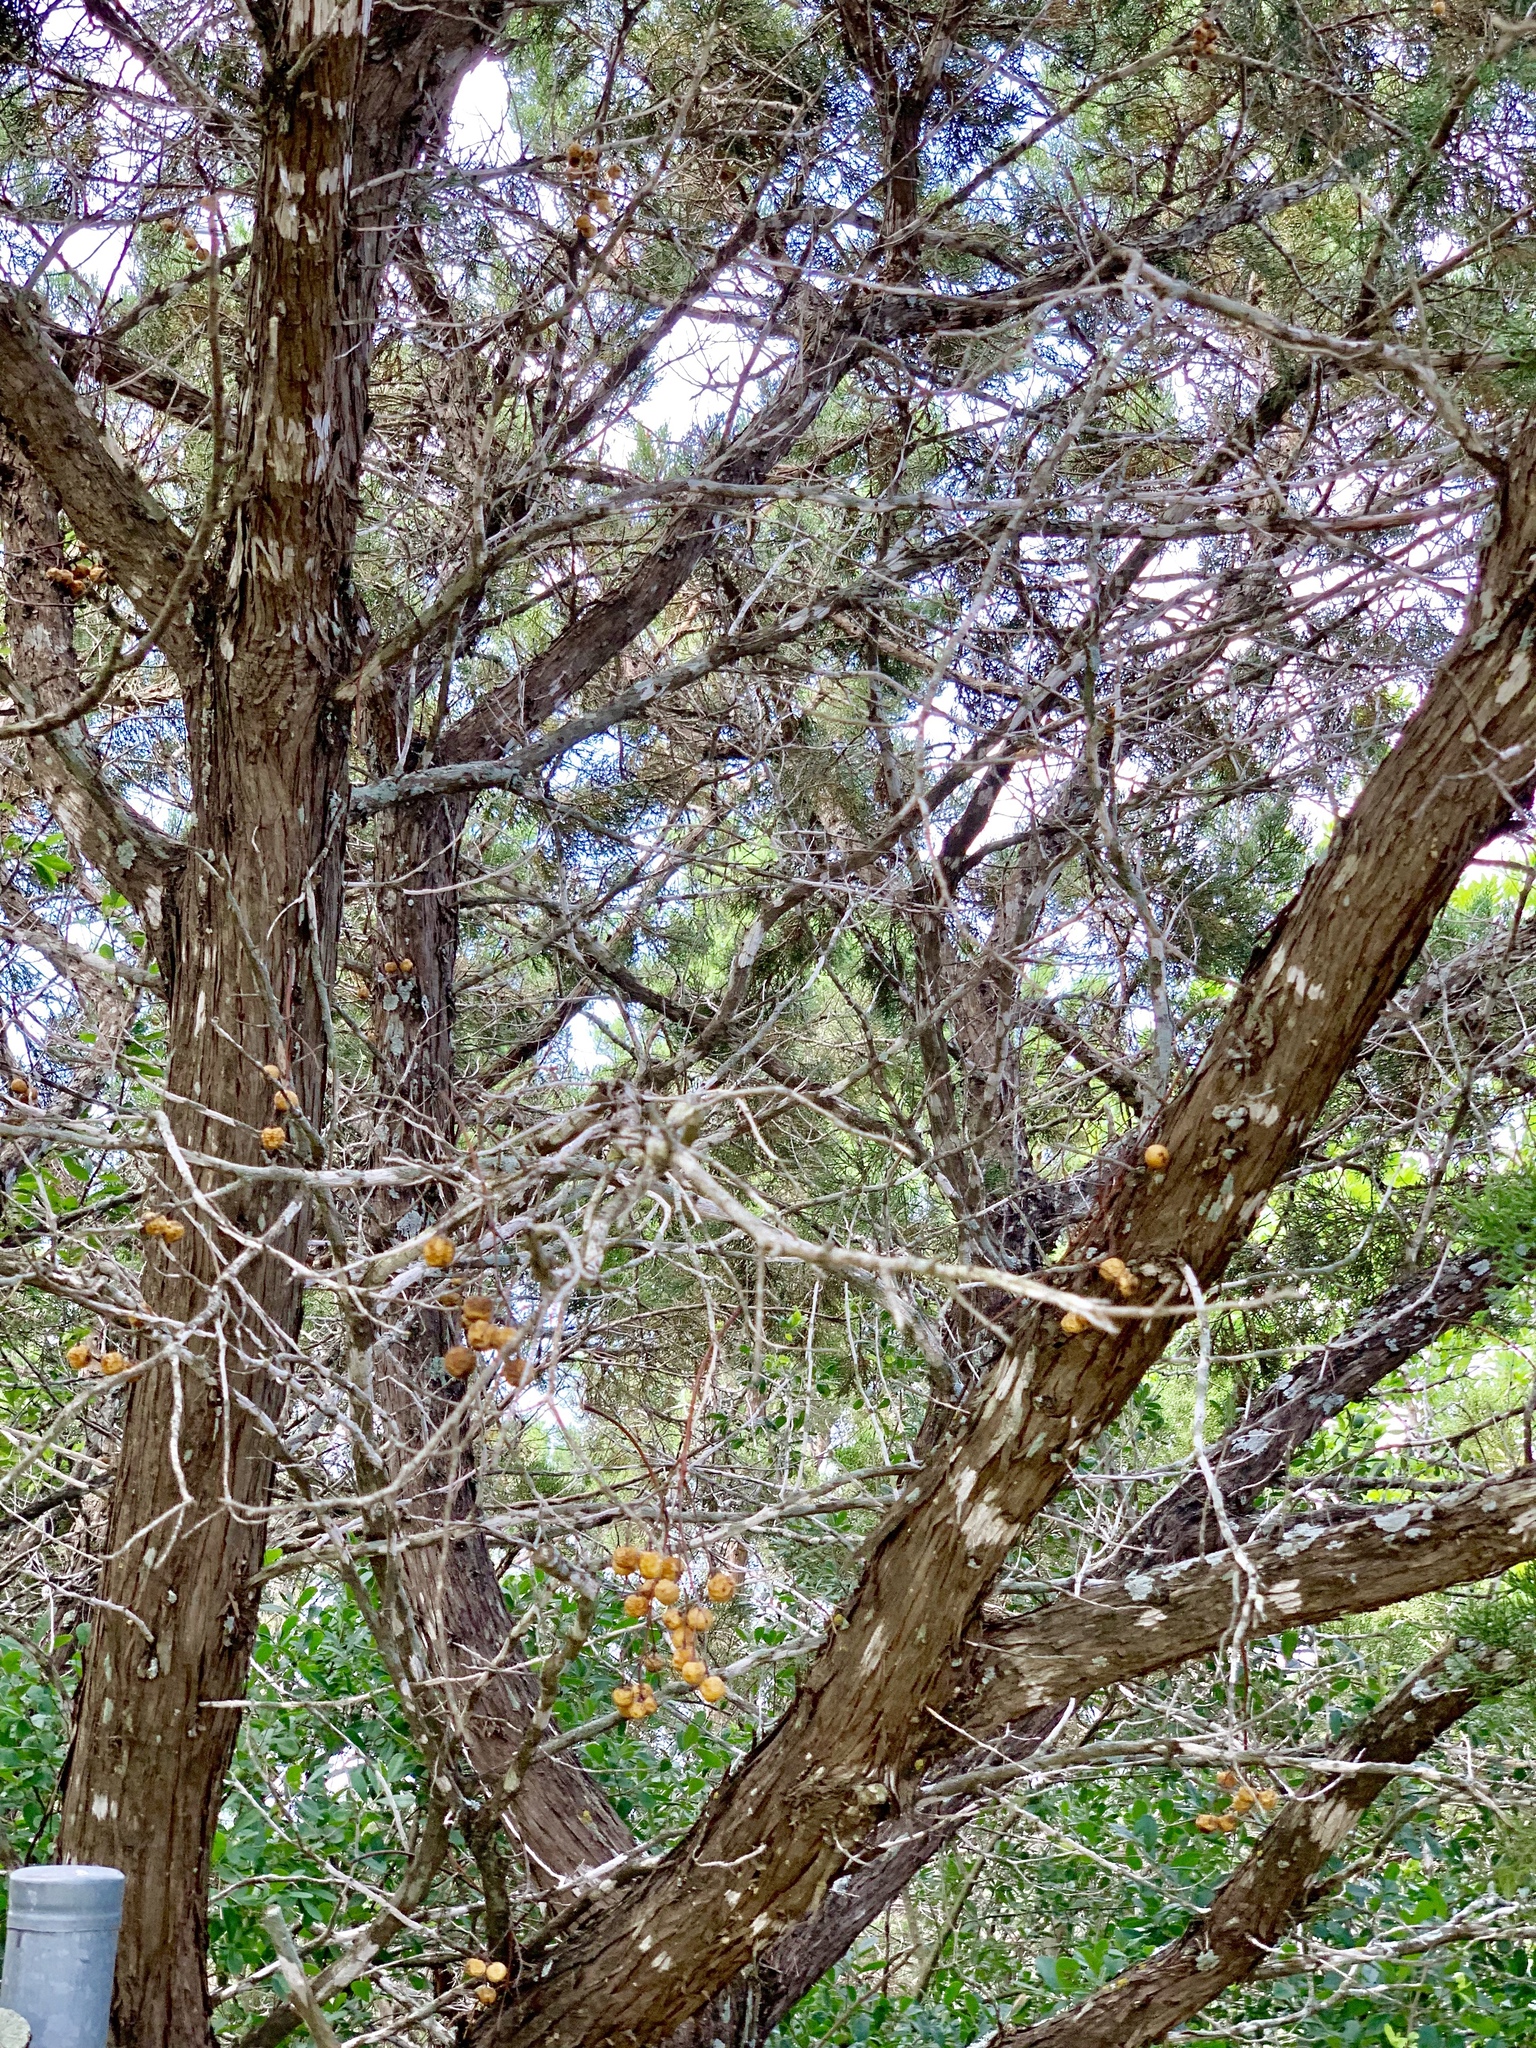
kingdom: Plantae
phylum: Tracheophyta
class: Pinopsida
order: Pinales
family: Cupressaceae
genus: Juniperus
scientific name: Juniperus ashei
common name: Mexican juniper
